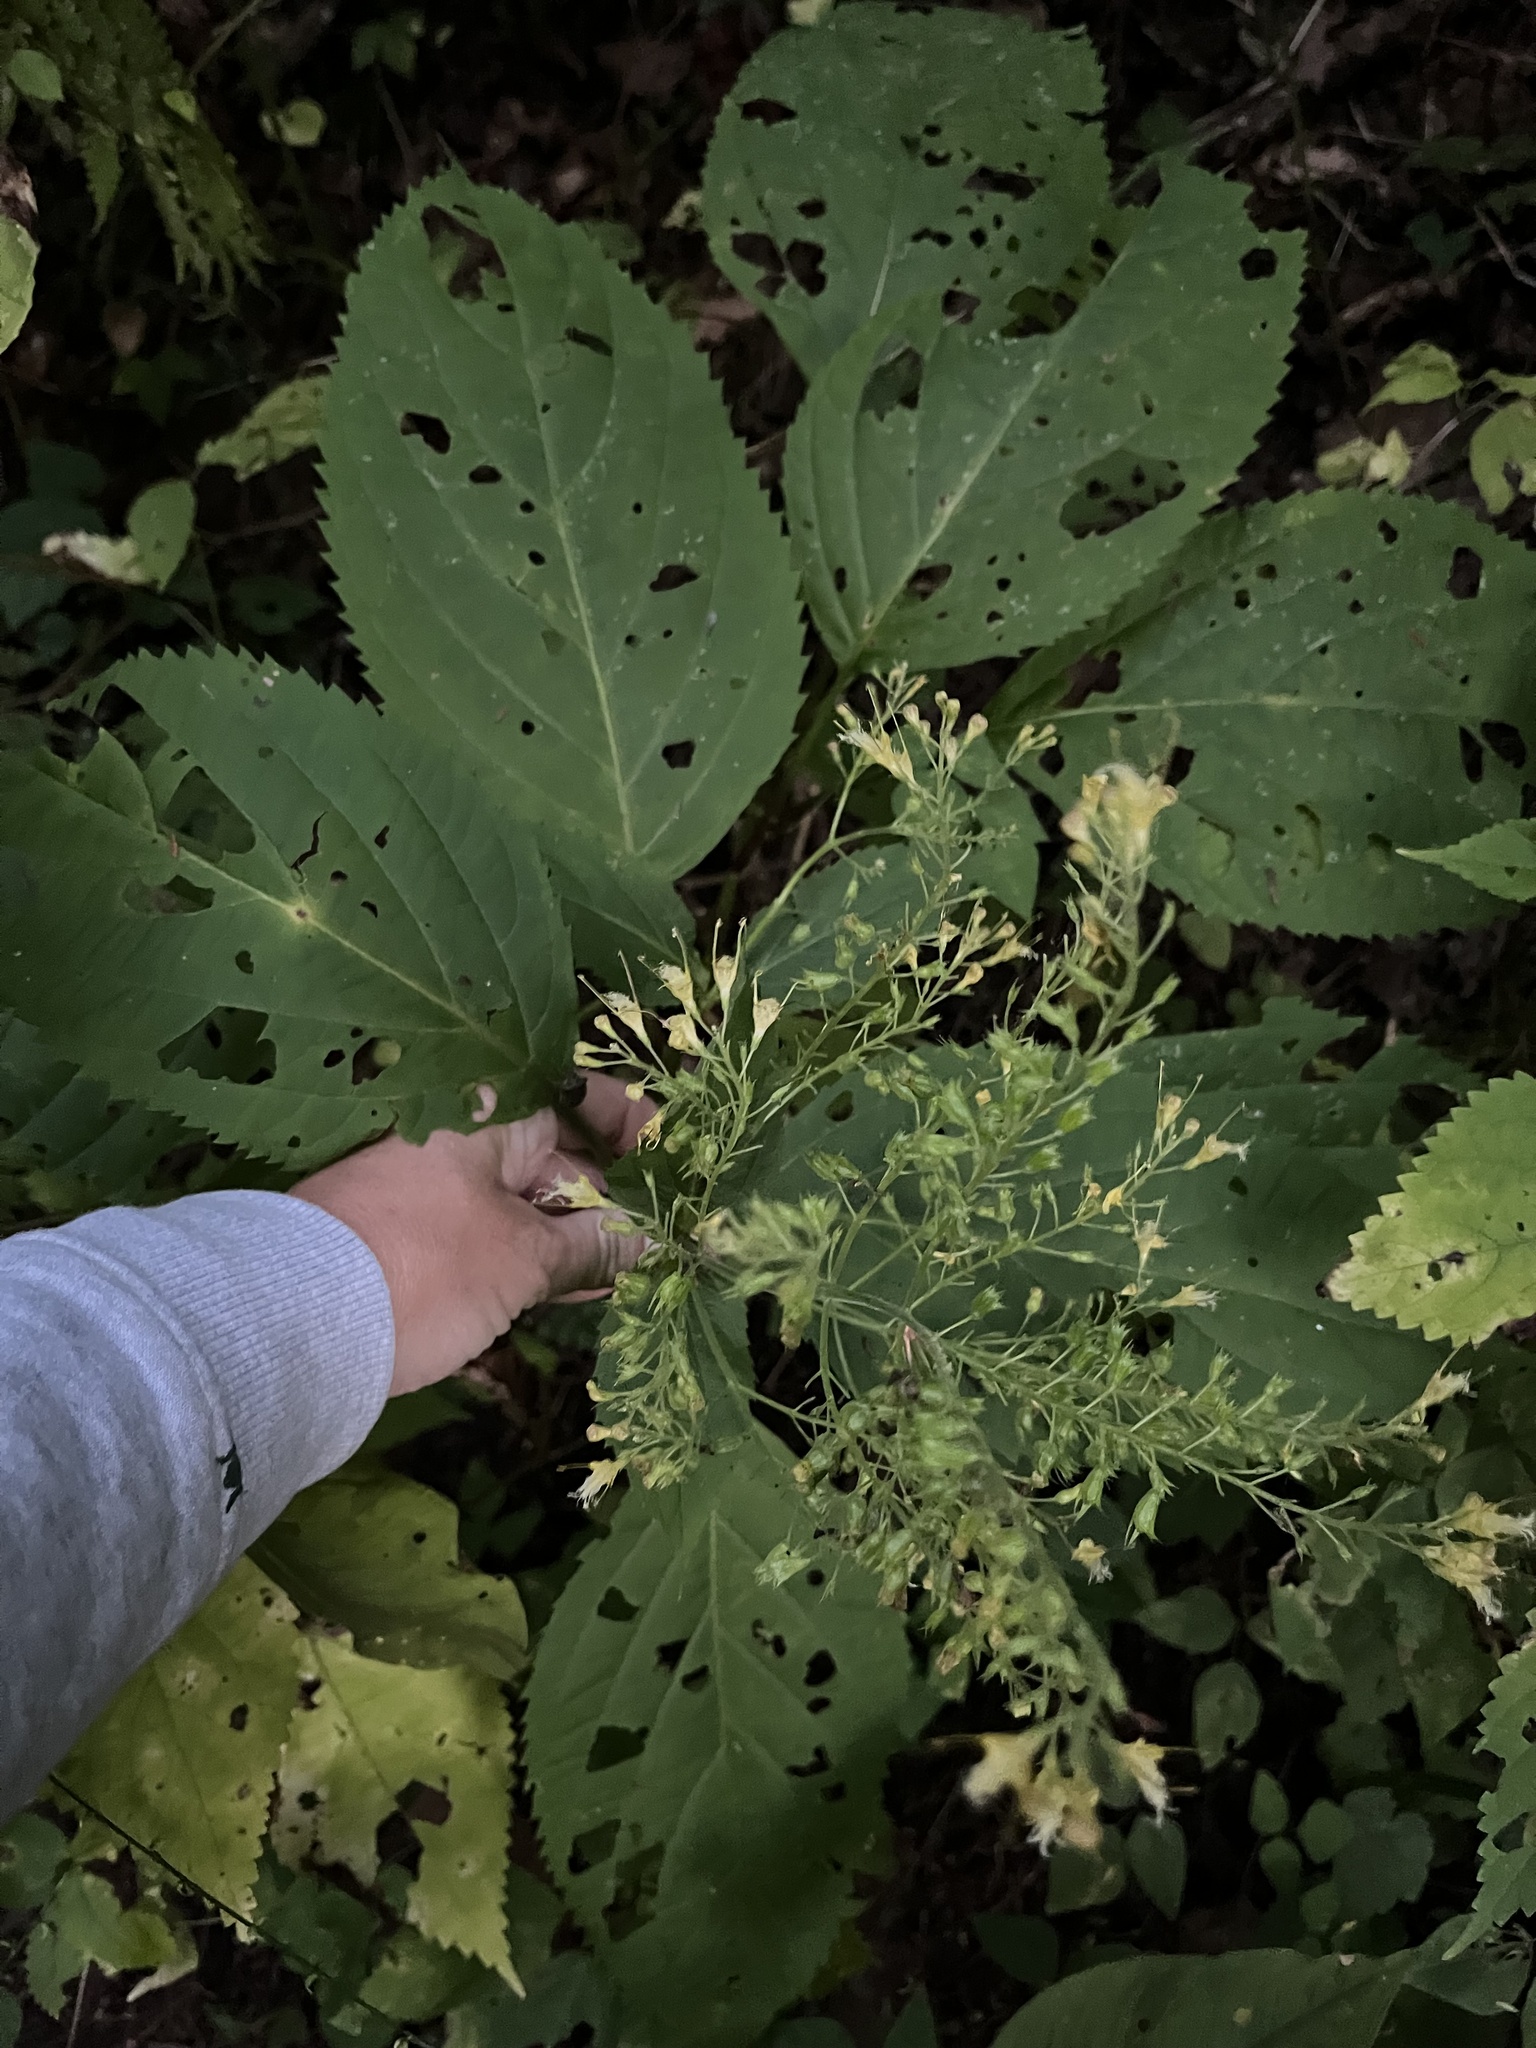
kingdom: Plantae
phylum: Tracheophyta
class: Magnoliopsida
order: Lamiales
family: Lamiaceae
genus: Collinsonia
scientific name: Collinsonia canadensis
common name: Northern horsebalm
